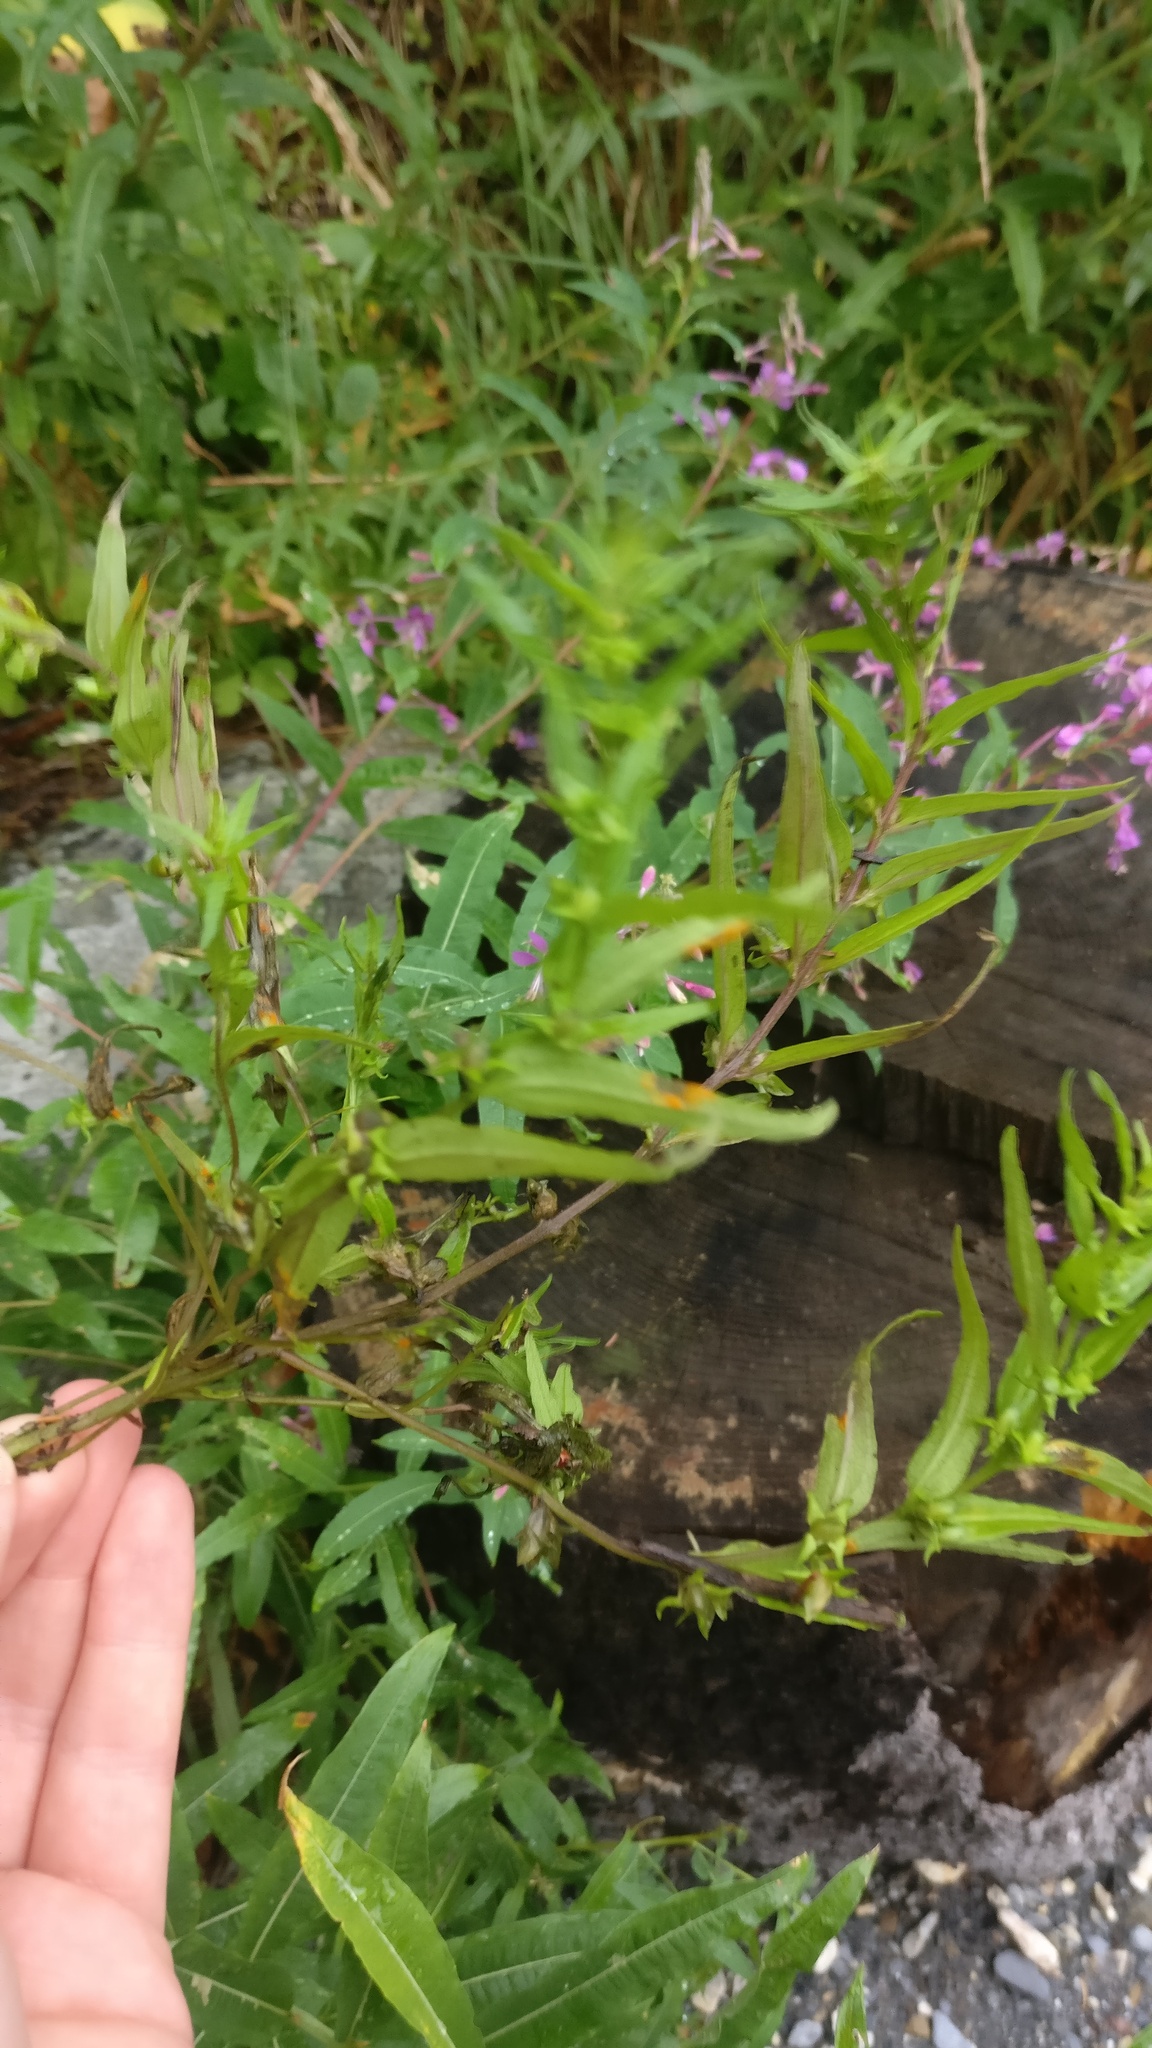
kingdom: Plantae
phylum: Tracheophyta
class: Magnoliopsida
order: Lamiales
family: Orobanchaceae
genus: Melampyrum
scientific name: Melampyrum sylvaticum
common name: Small cow-wheat
